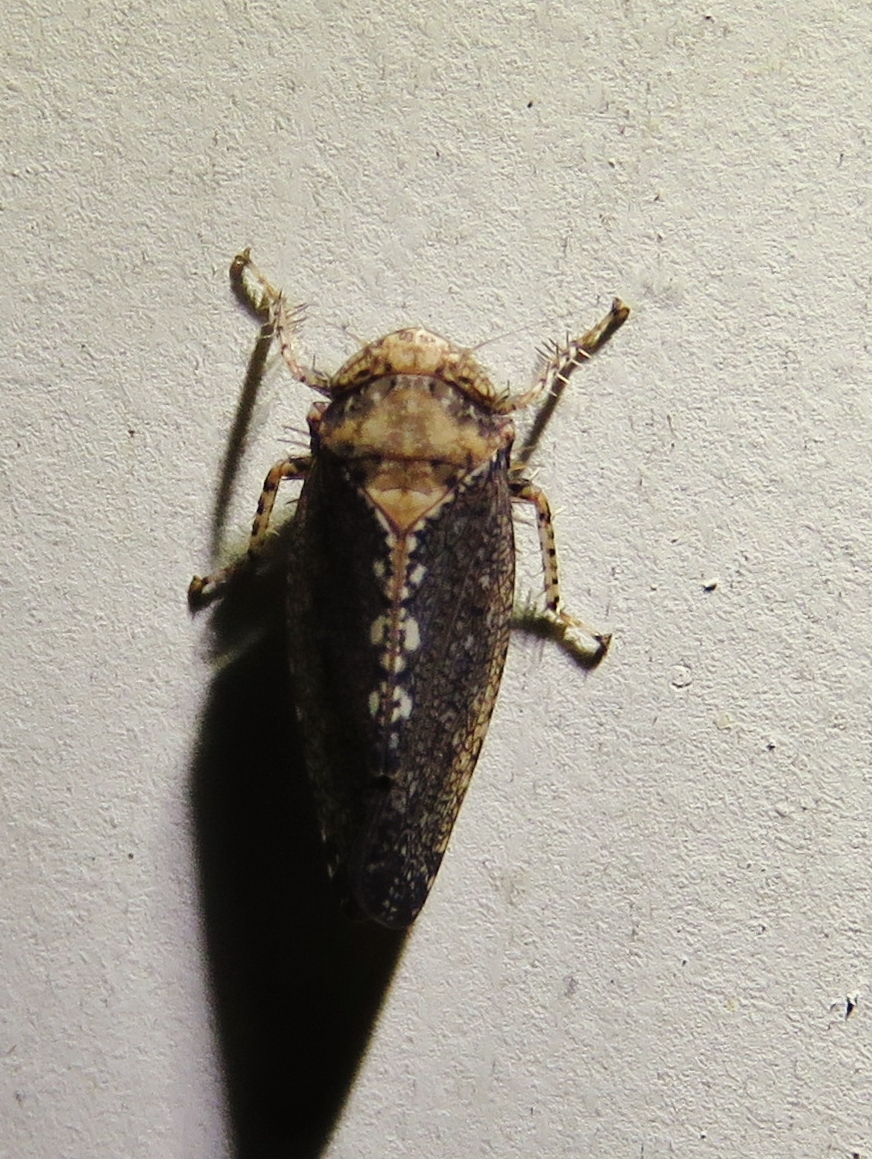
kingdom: Animalia
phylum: Arthropoda
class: Insecta
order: Hemiptera
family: Cicadellidae
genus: Excultanus
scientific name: Excultanus excultus
